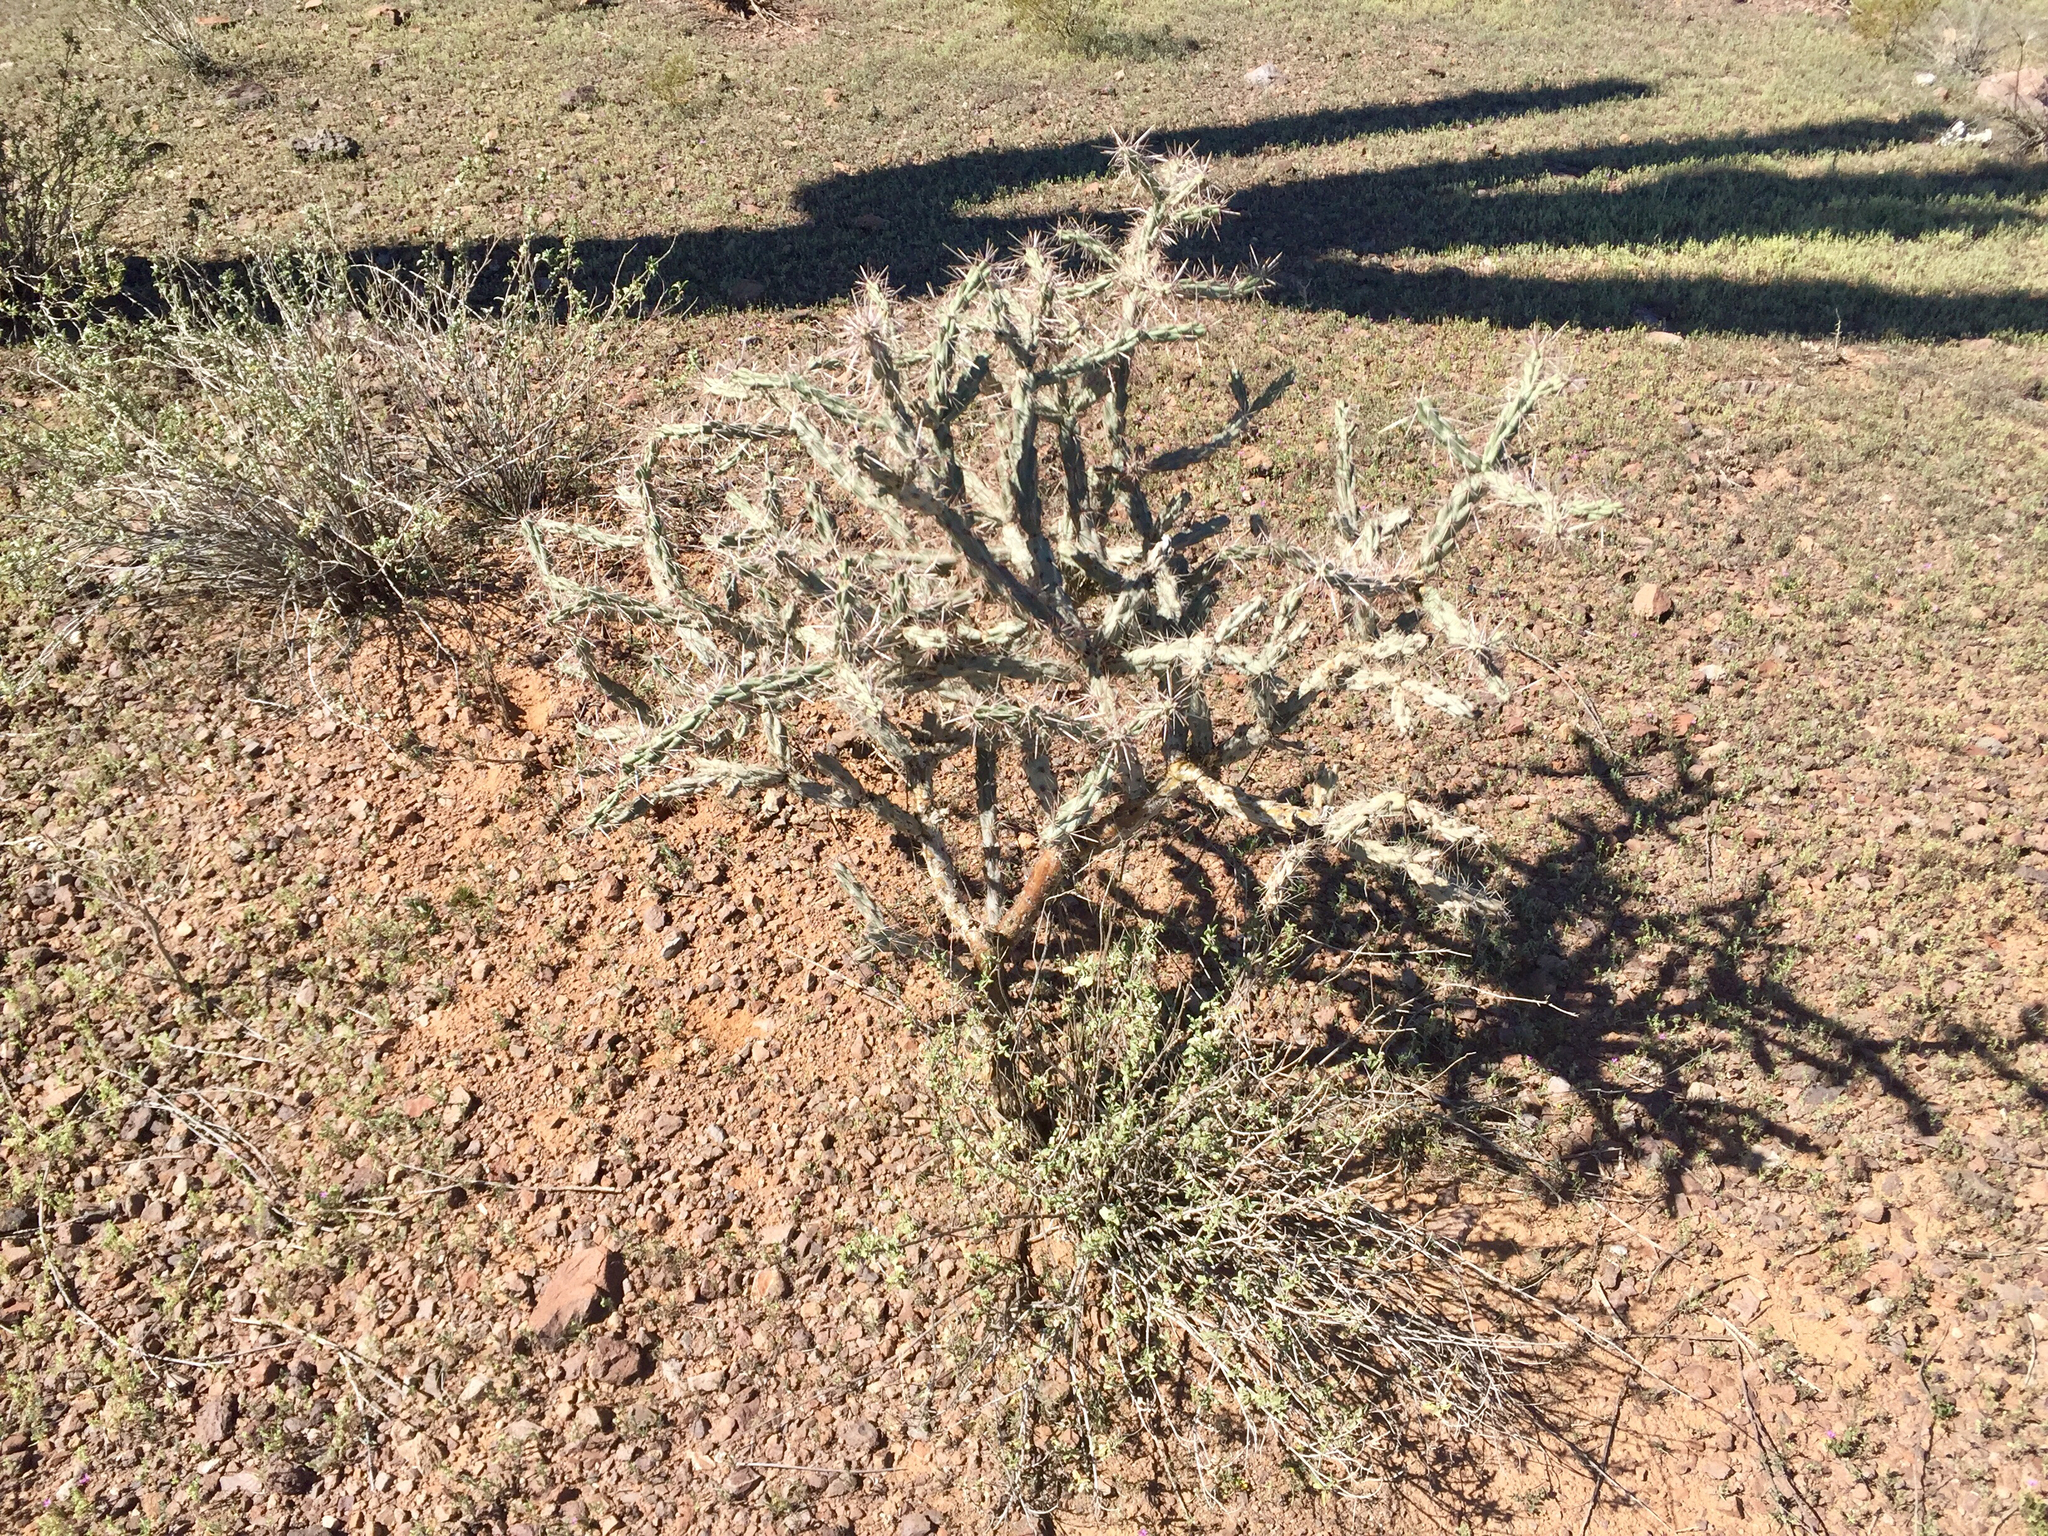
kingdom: Plantae
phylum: Tracheophyta
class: Magnoliopsida
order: Caryophyllales
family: Cactaceae
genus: Cylindropuntia
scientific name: Cylindropuntia acanthocarpa
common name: Buckhorn cholla
